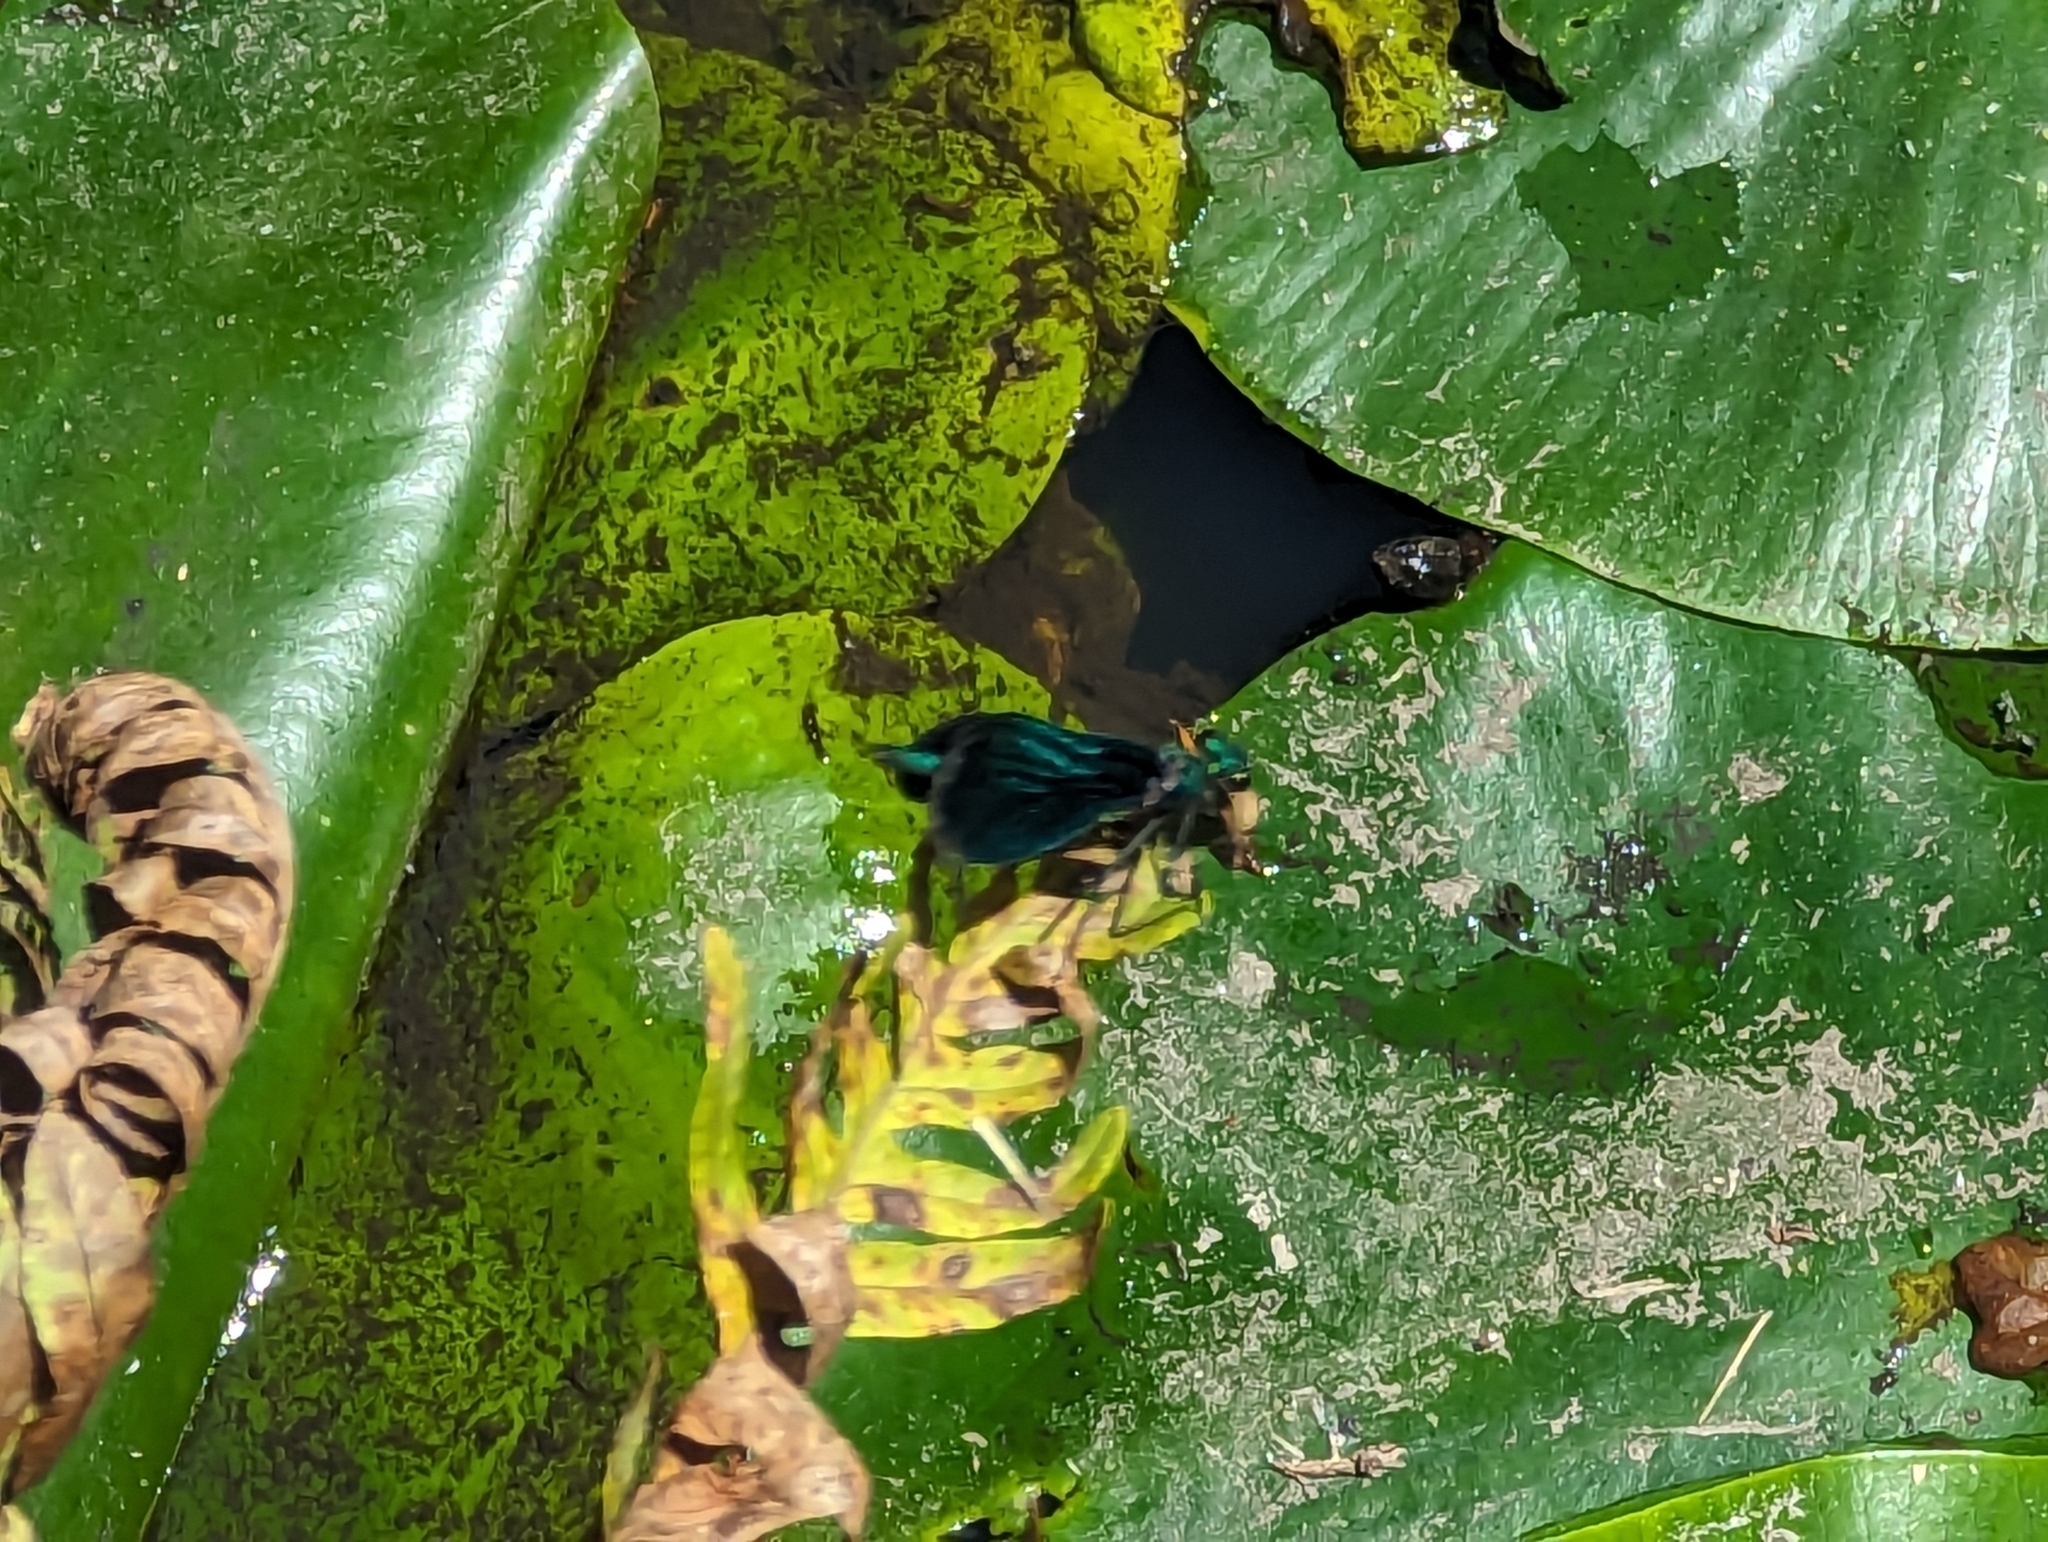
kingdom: Animalia
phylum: Arthropoda
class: Insecta
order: Odonata
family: Calopterygidae
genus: Calopteryx
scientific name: Calopteryx virgo
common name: Beautiful demoiselle
